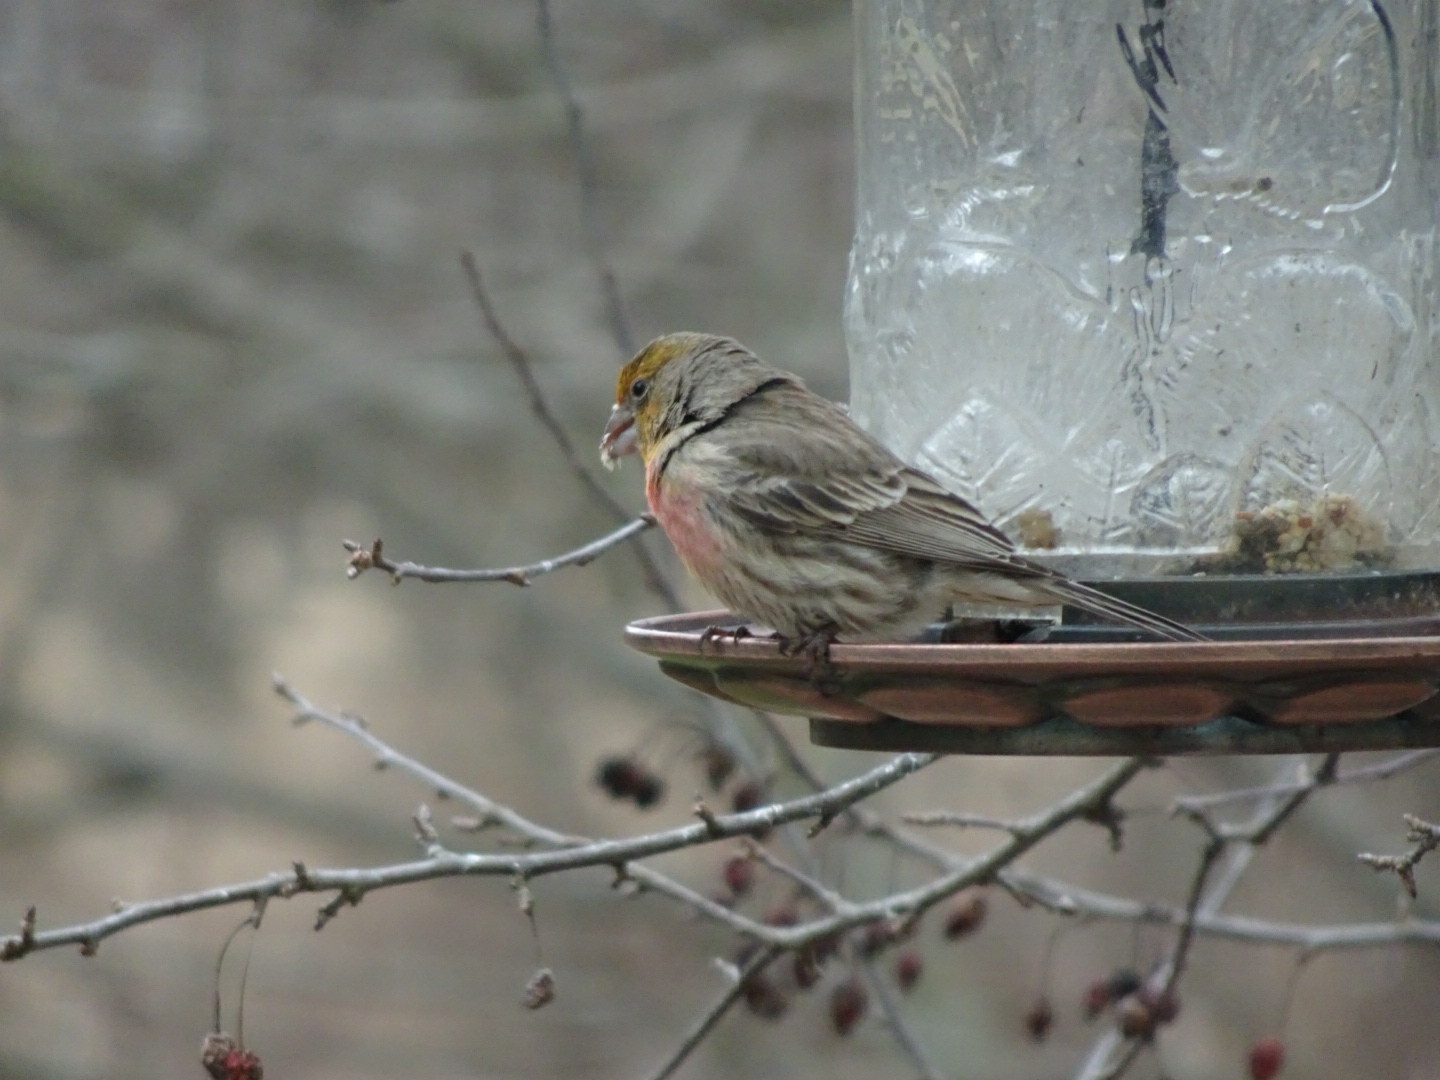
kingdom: Animalia
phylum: Chordata
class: Aves
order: Passeriformes
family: Fringillidae
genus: Haemorhous
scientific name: Haemorhous mexicanus
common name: House finch
